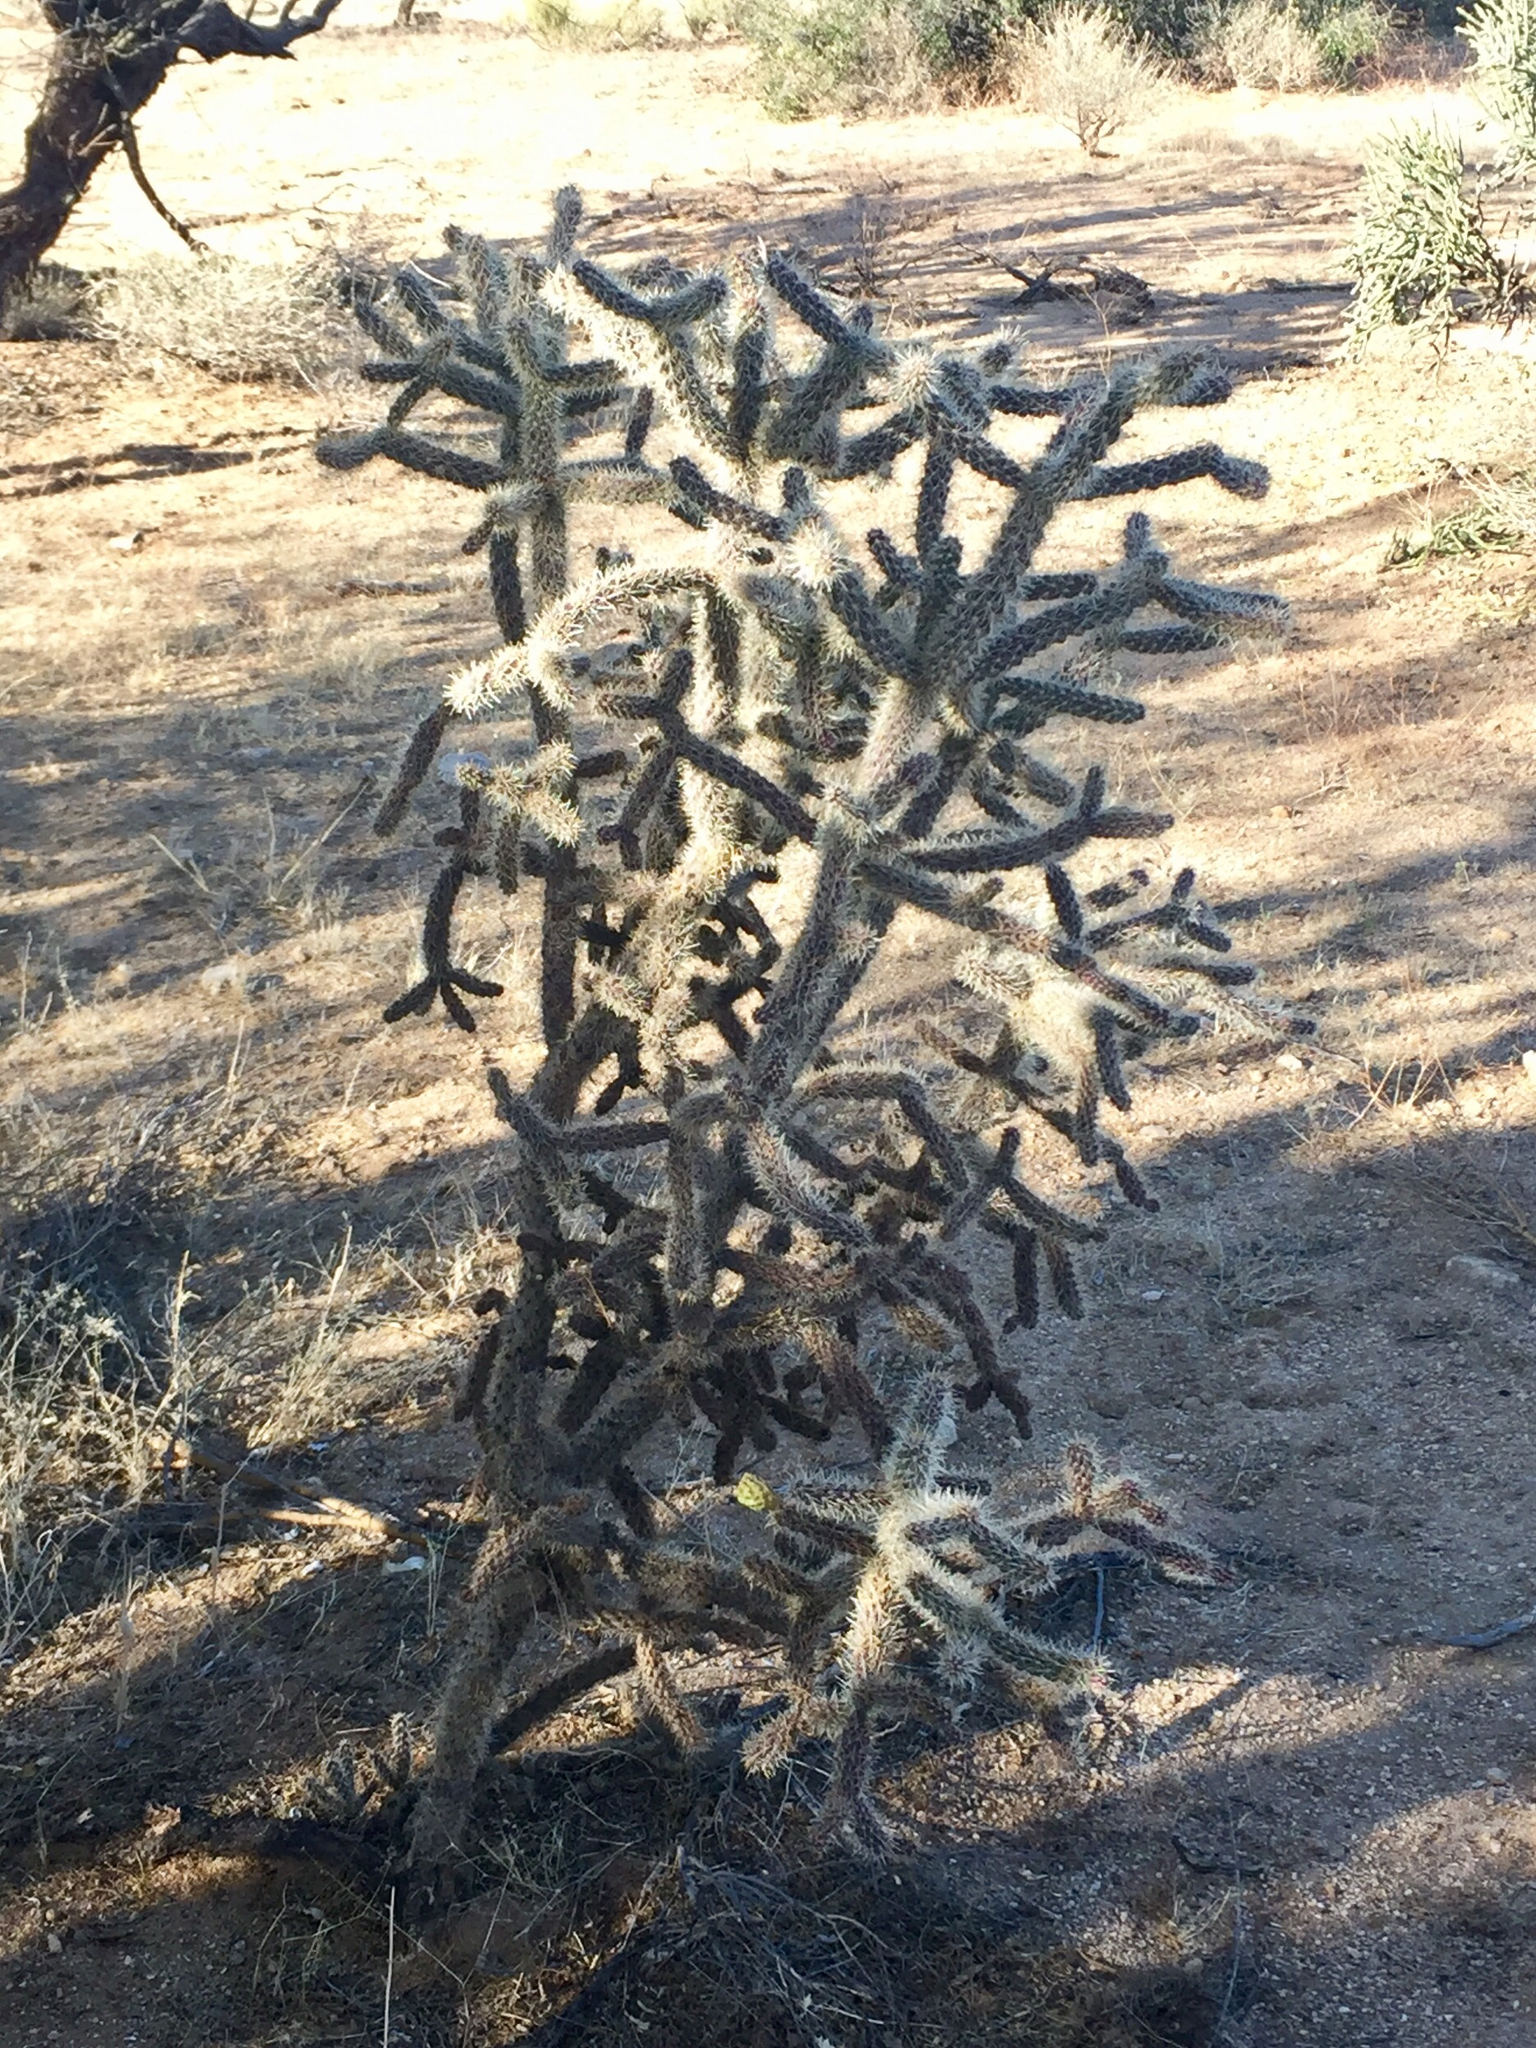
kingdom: Plantae
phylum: Tracheophyta
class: Magnoliopsida
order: Caryophyllales
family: Cactaceae
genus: Cylindropuntia
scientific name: Cylindropuntia imbricata
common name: Candelabrum cactus
